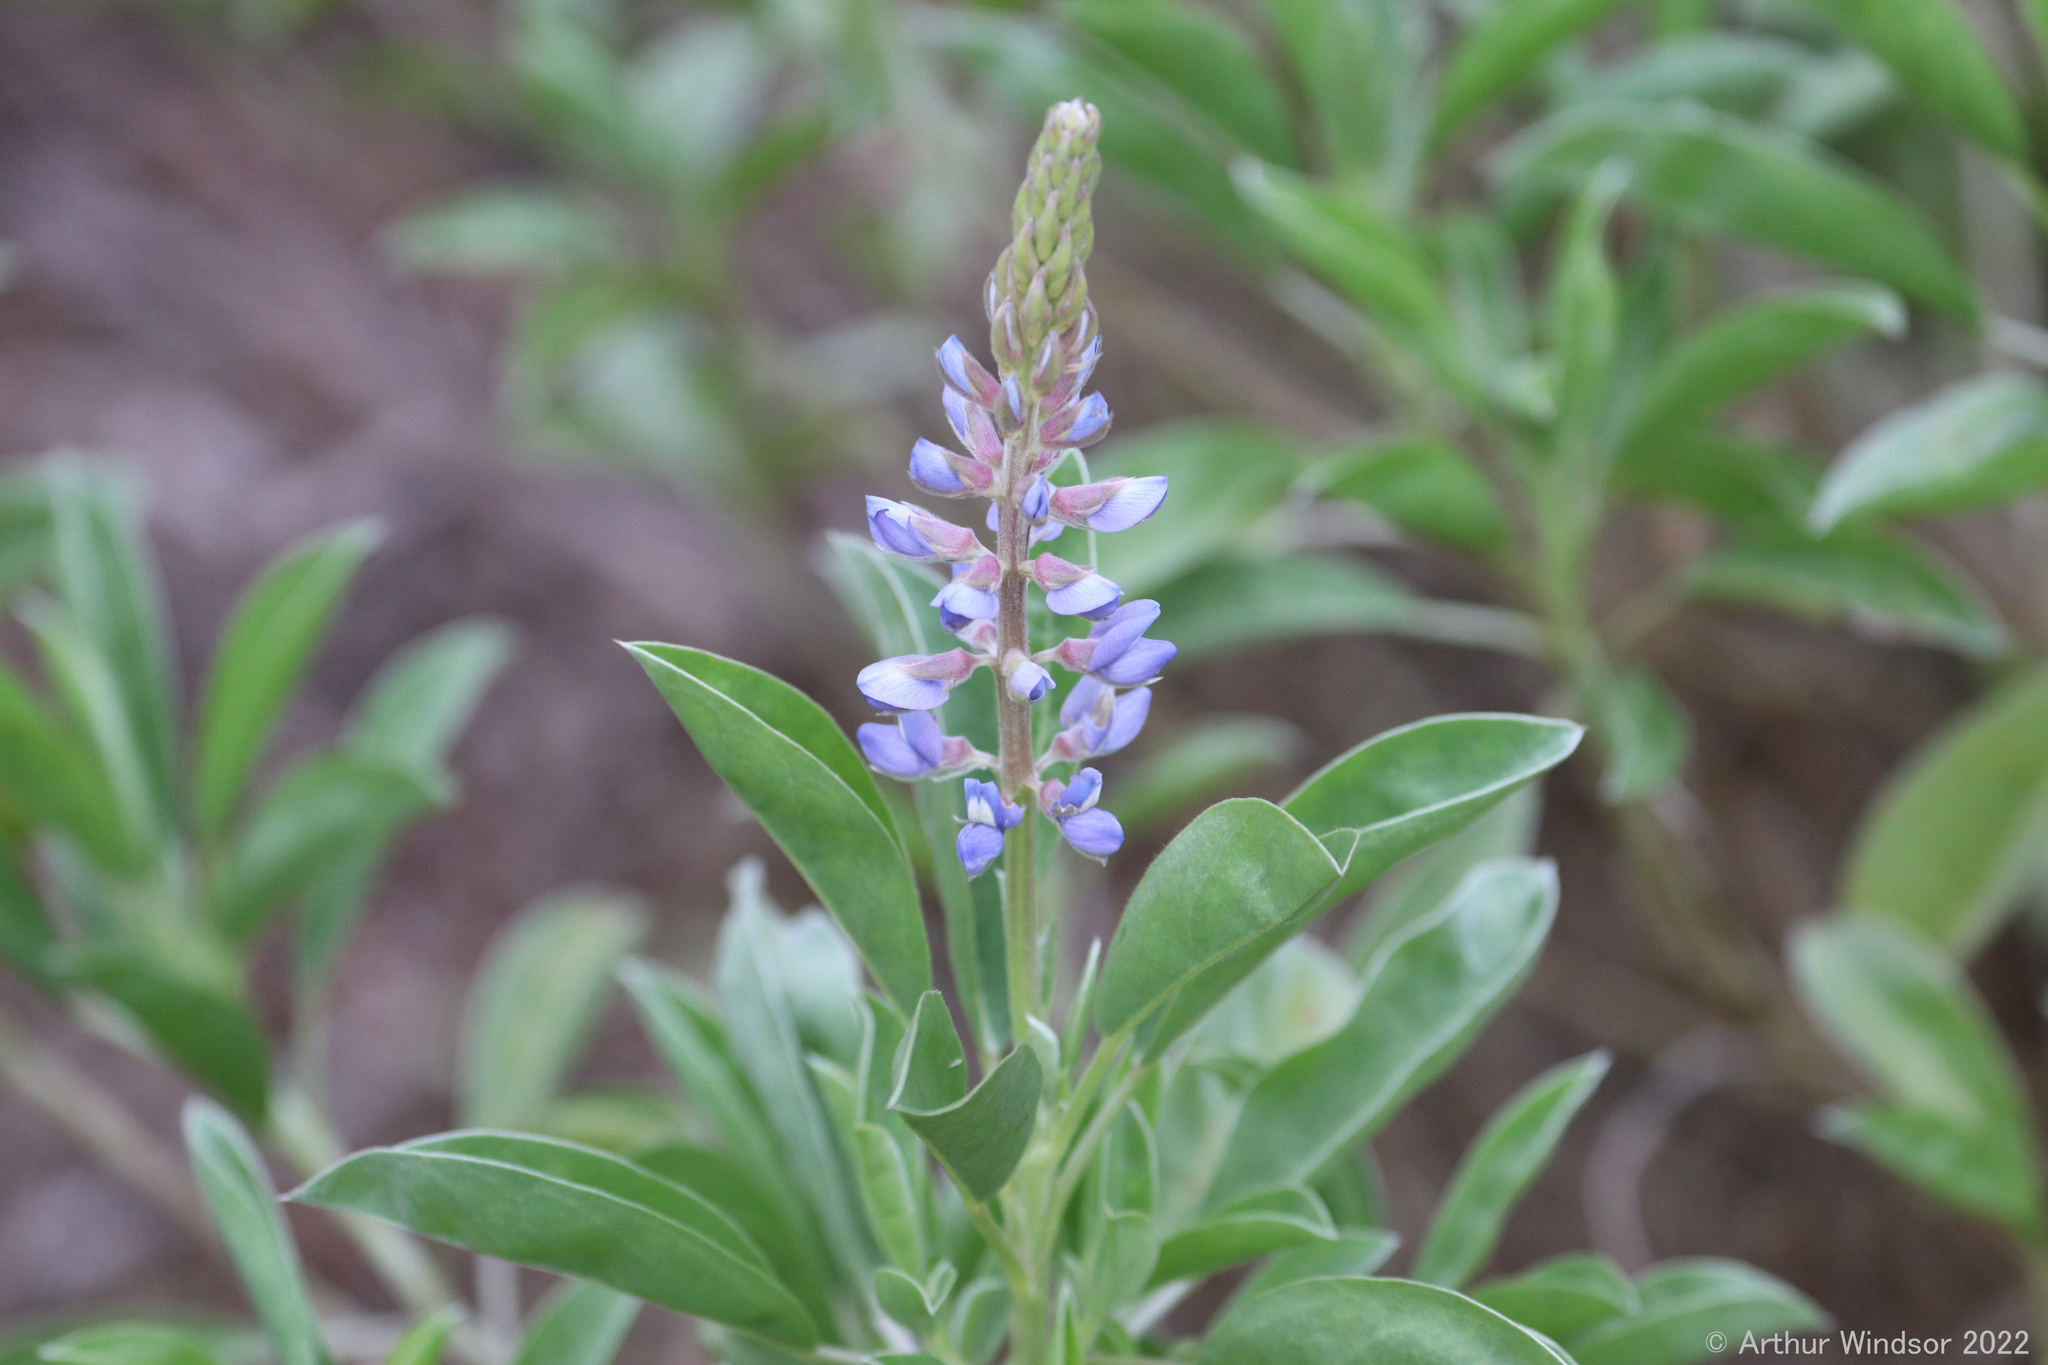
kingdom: Plantae
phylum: Tracheophyta
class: Magnoliopsida
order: Fabales
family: Fabaceae
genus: Lupinus
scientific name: Lupinus
